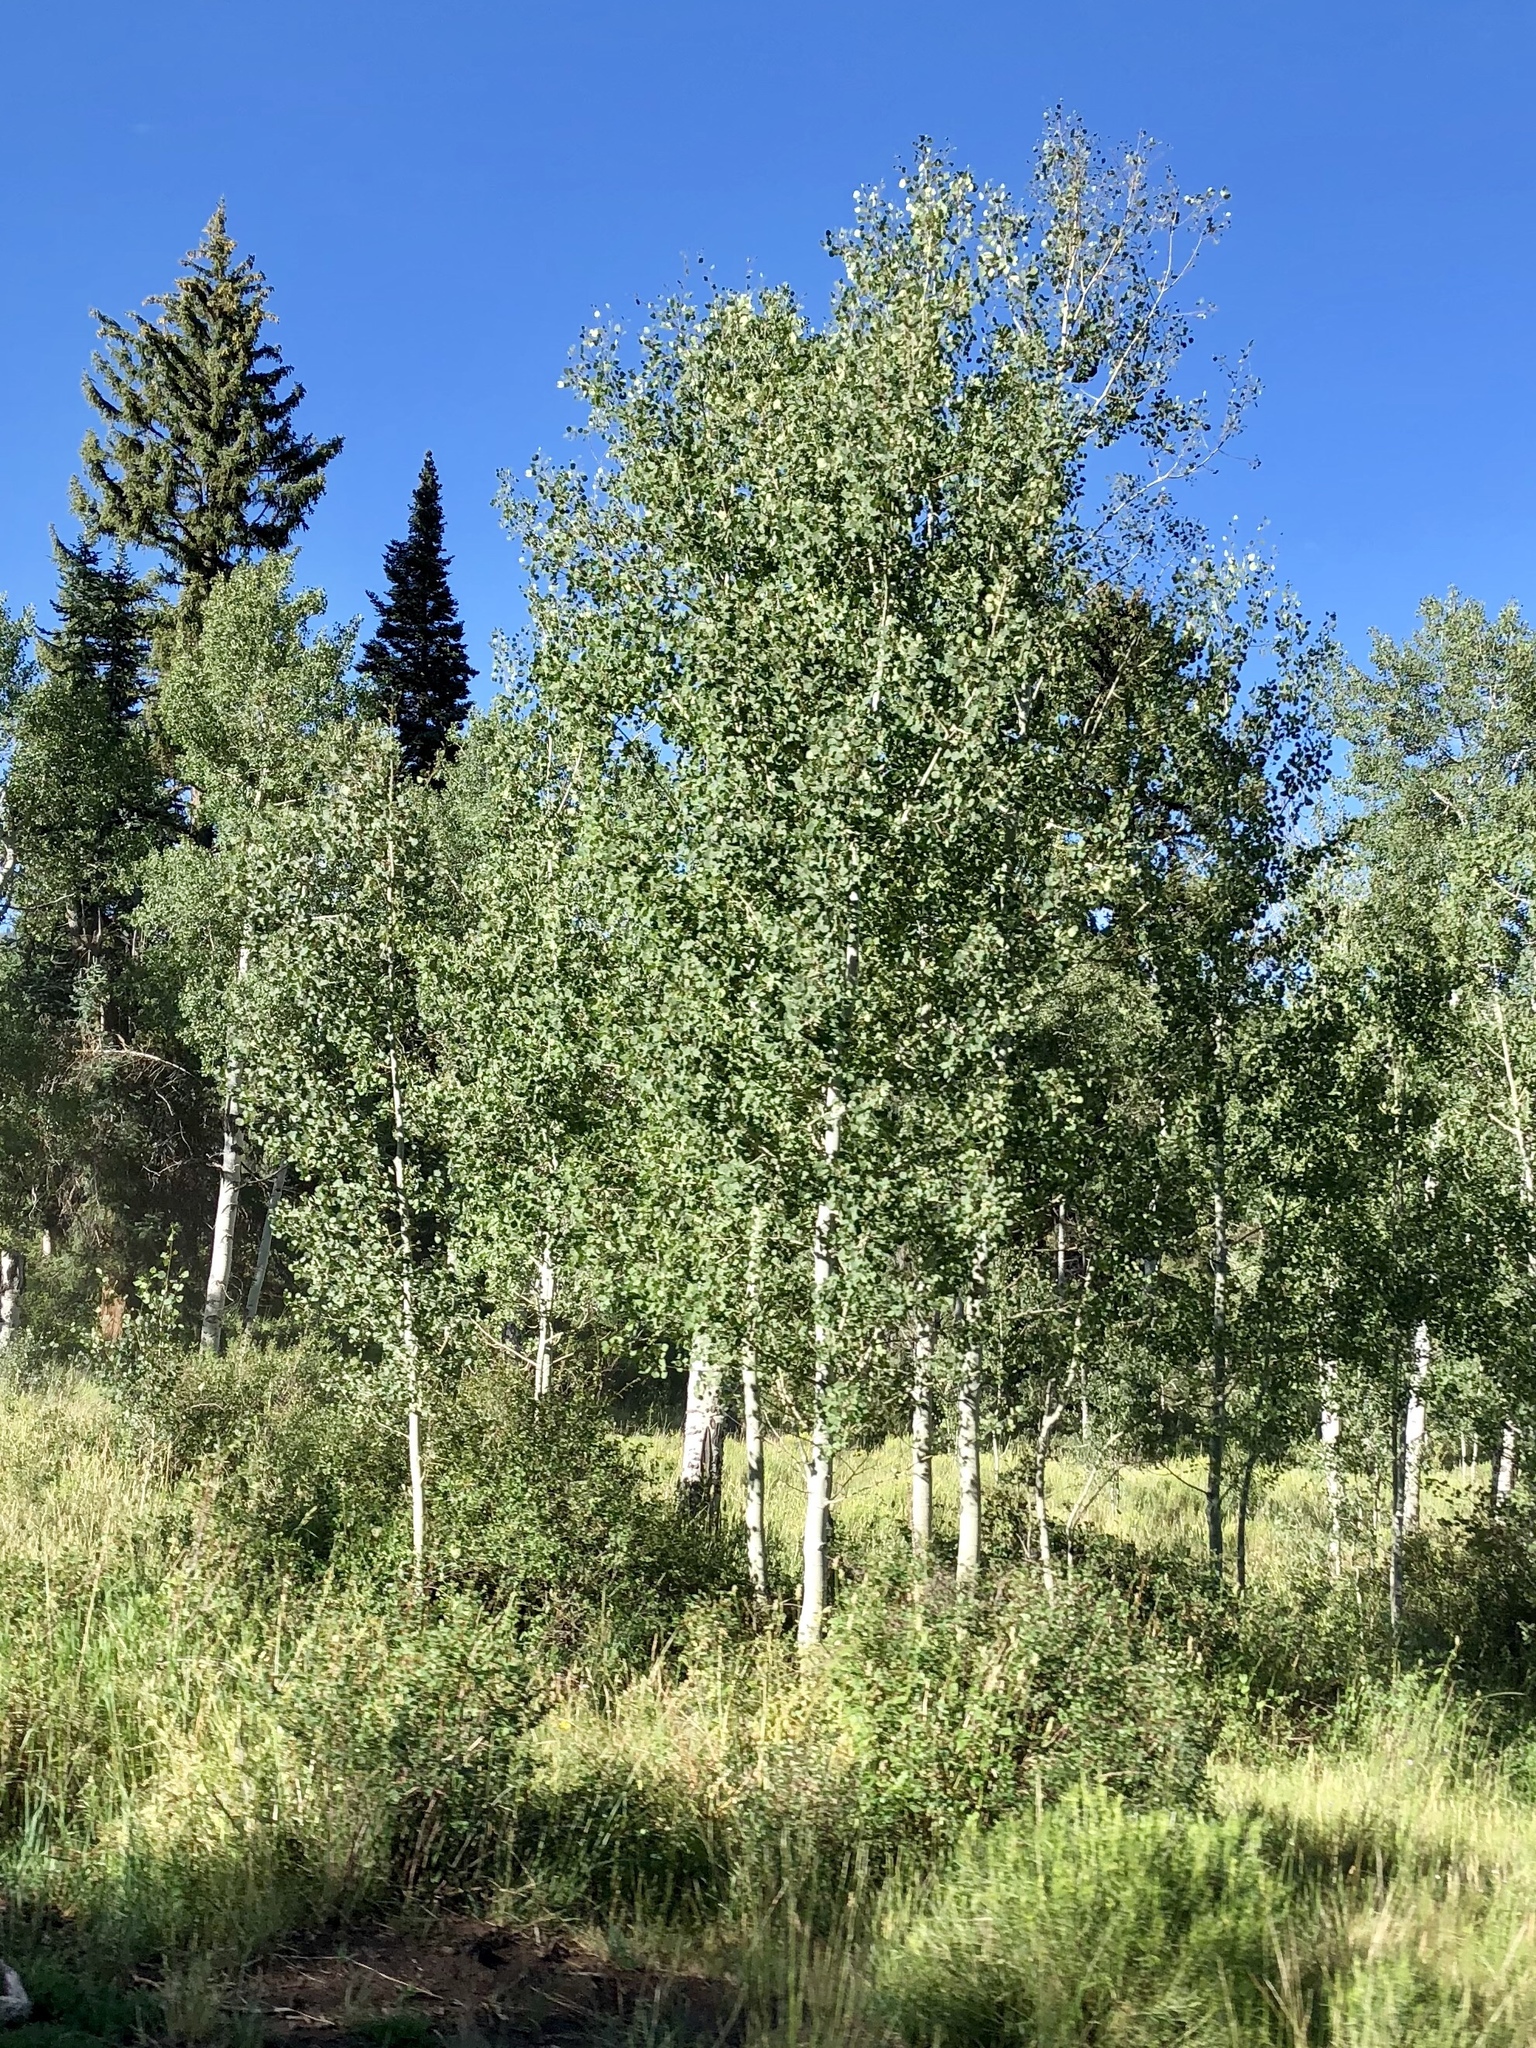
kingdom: Plantae
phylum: Tracheophyta
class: Magnoliopsida
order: Malpighiales
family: Salicaceae
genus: Populus
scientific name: Populus tremuloides
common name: Quaking aspen
